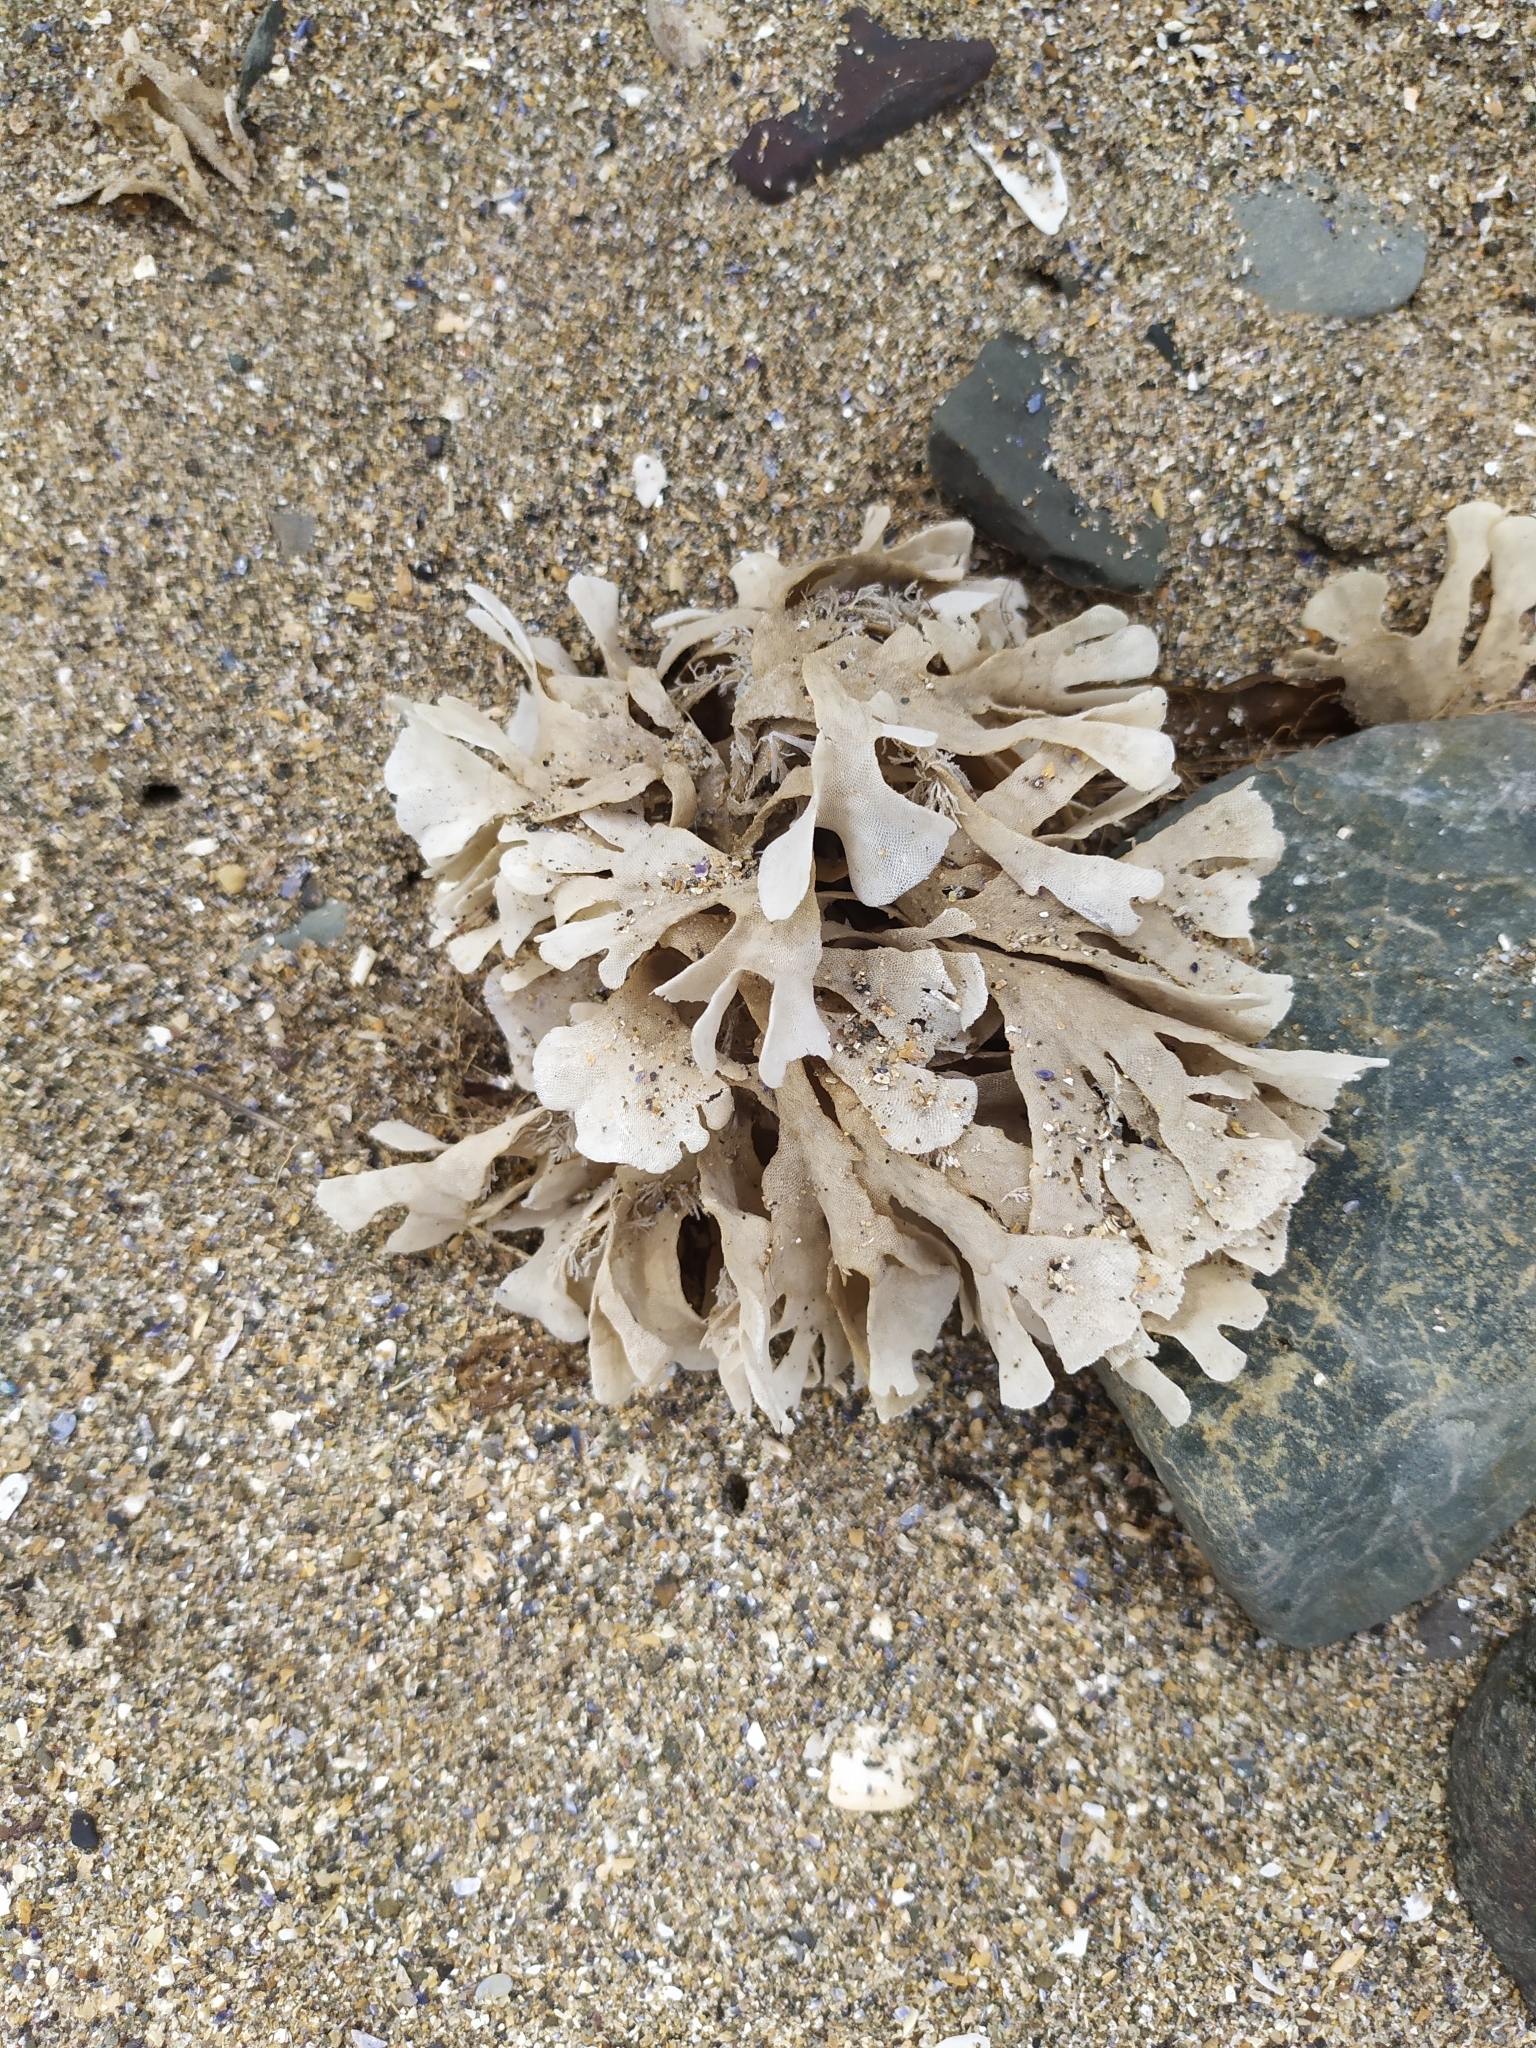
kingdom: Animalia
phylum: Bryozoa
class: Gymnolaemata
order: Cheilostomatida
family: Flustridae
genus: Flustra
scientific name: Flustra foliacea
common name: Hornwrack
